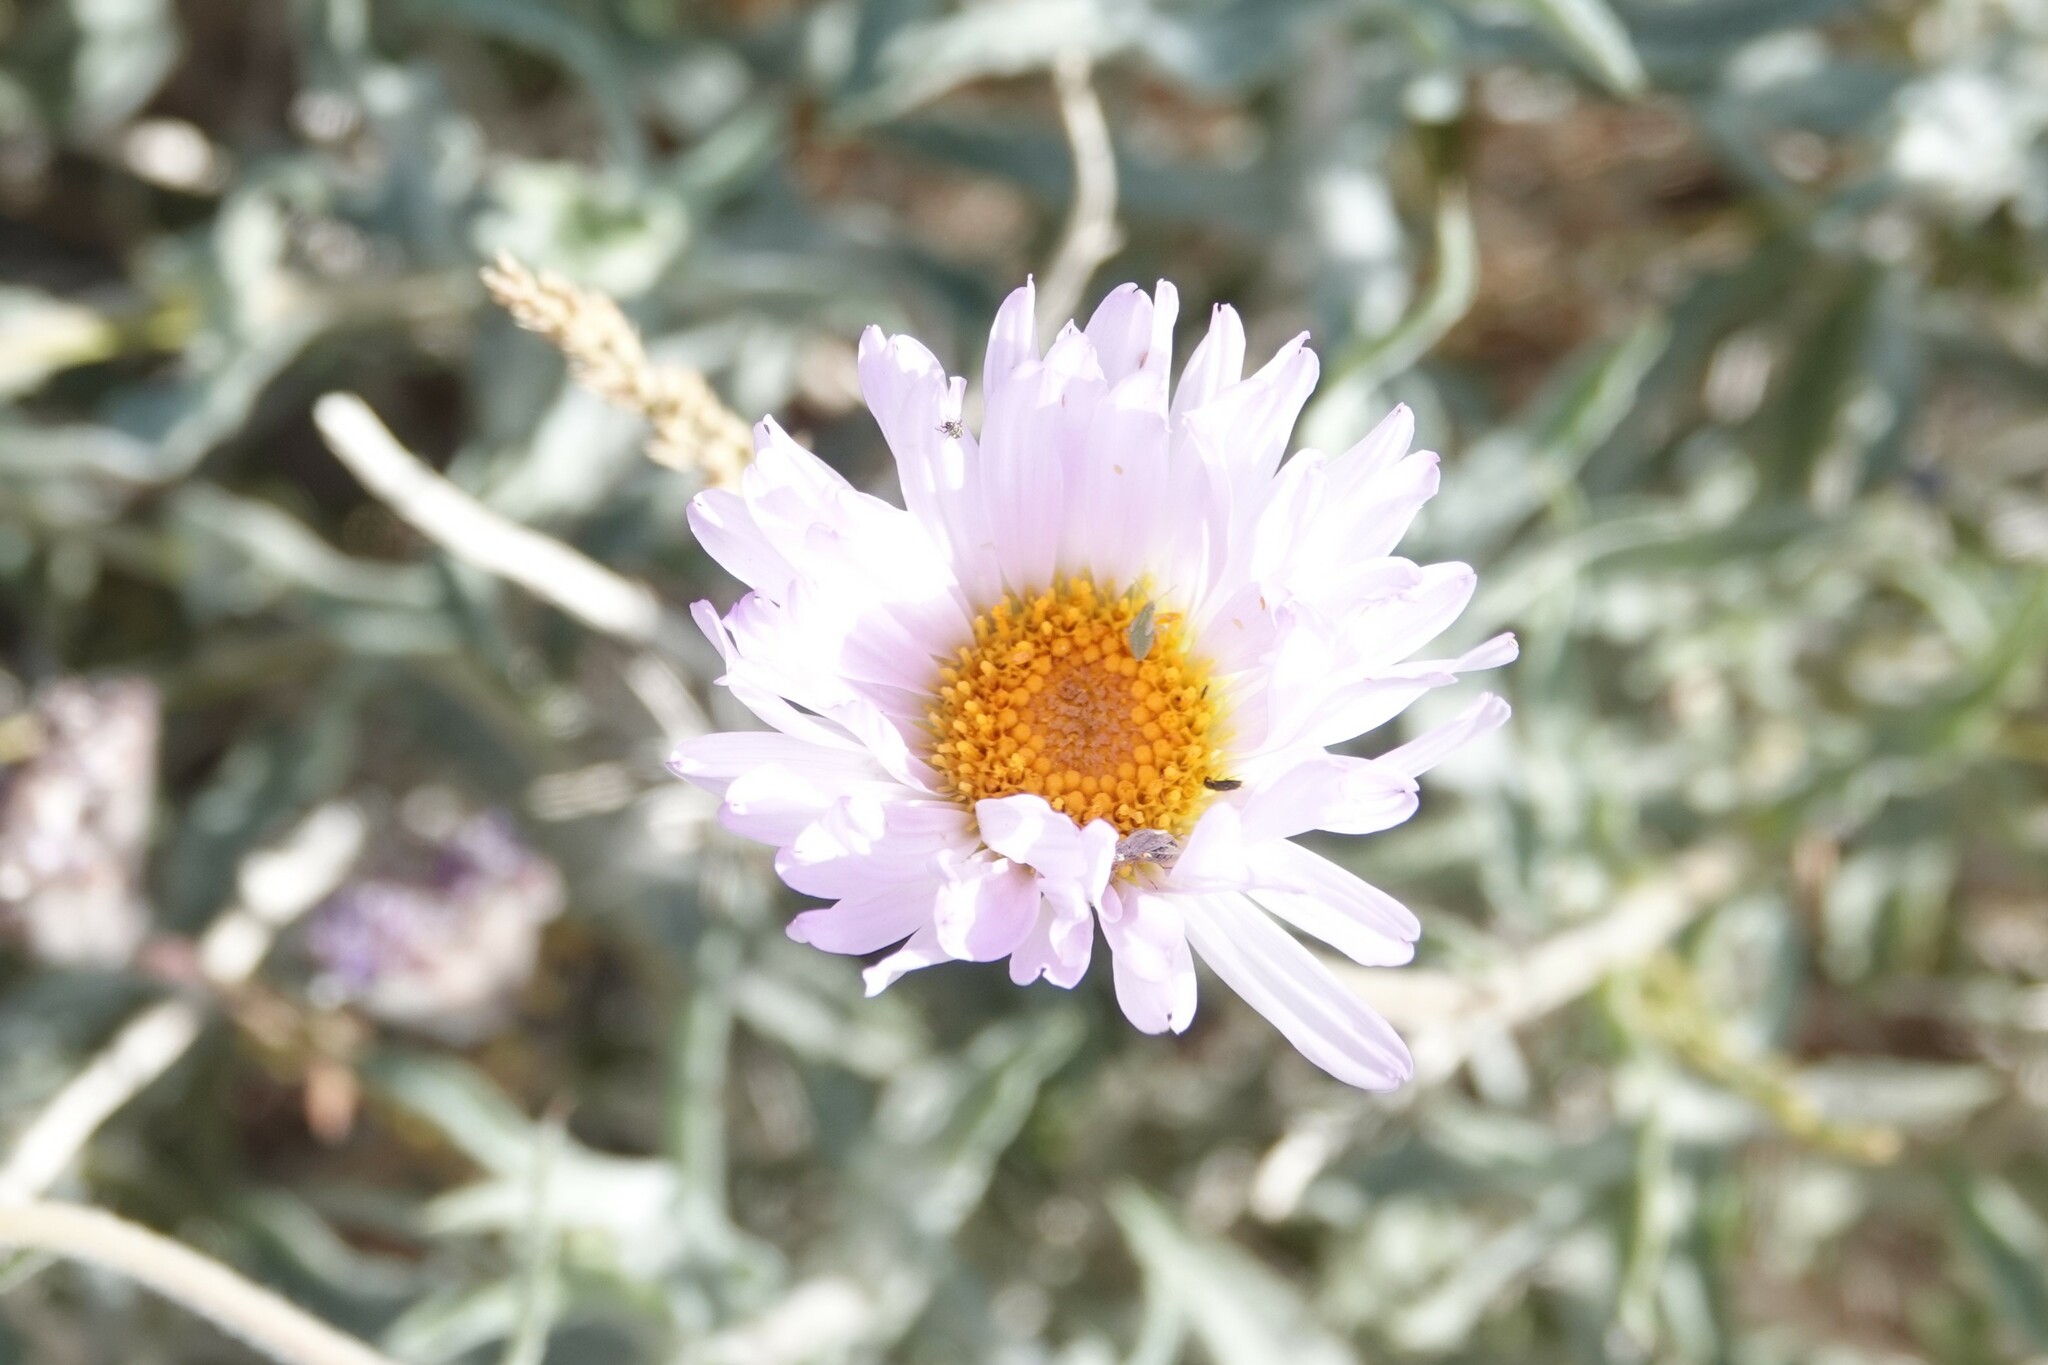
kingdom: Plantae
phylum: Tracheophyta
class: Magnoliopsida
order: Asterales
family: Asteraceae
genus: Xylorhiza
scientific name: Xylorhiza tortifolia
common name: Hurt-leaf woody-aster
